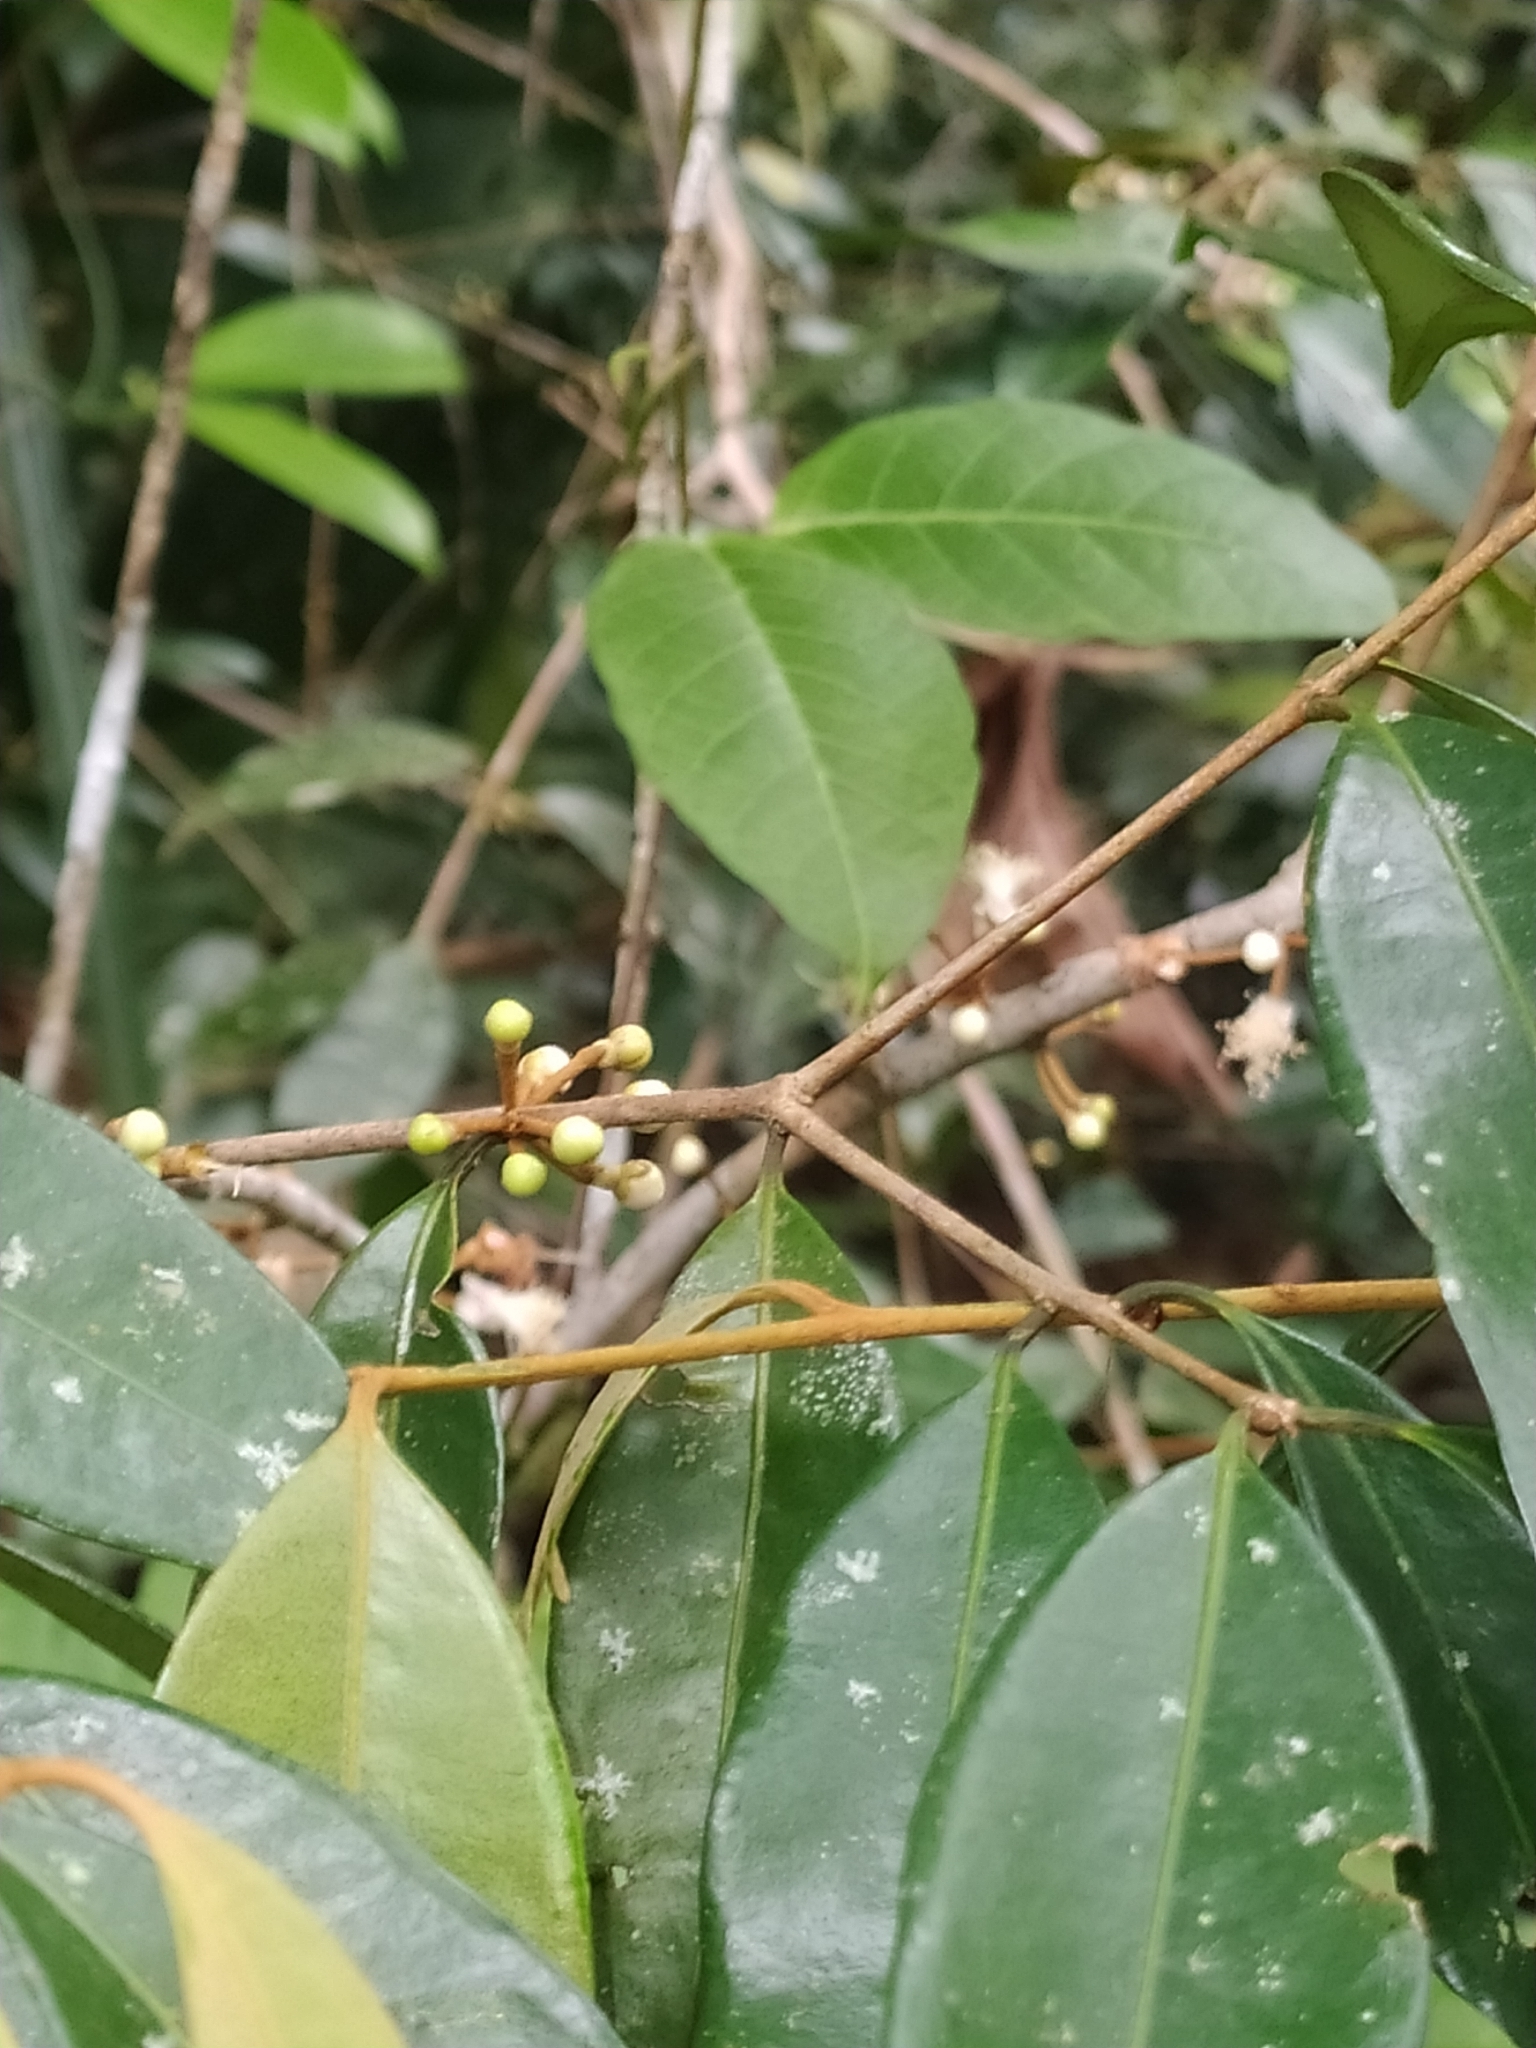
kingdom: Plantae
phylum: Tracheophyta
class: Magnoliopsida
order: Myrtales
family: Myrtaceae
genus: Eugenia
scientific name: Eugenia ferreiraeana
